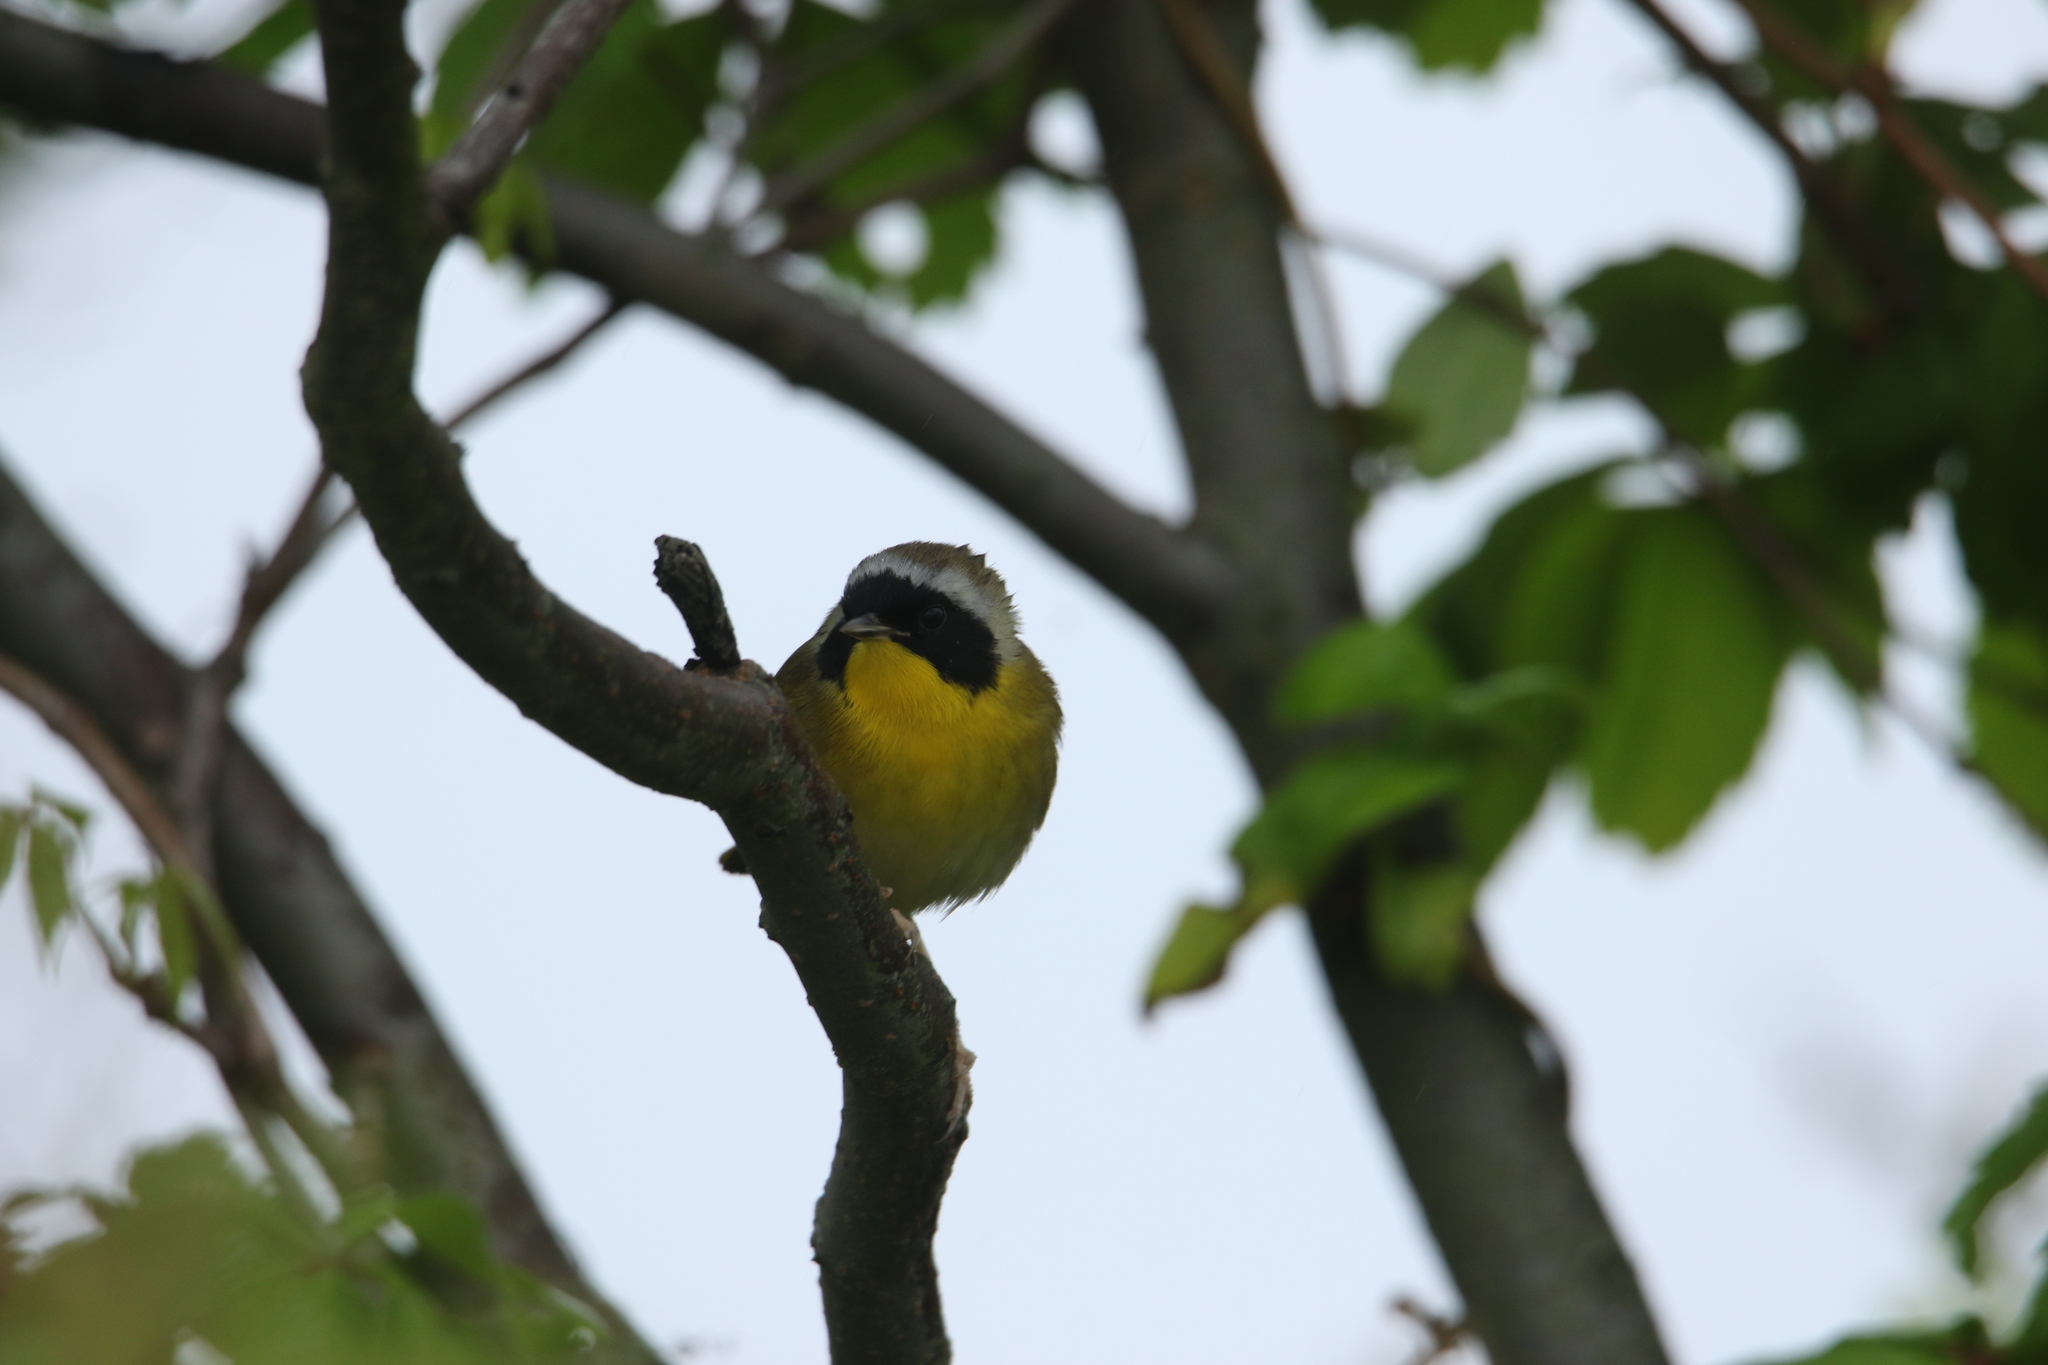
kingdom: Animalia
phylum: Chordata
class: Aves
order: Passeriformes
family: Parulidae
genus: Geothlypis
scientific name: Geothlypis trichas
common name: Common yellowthroat
